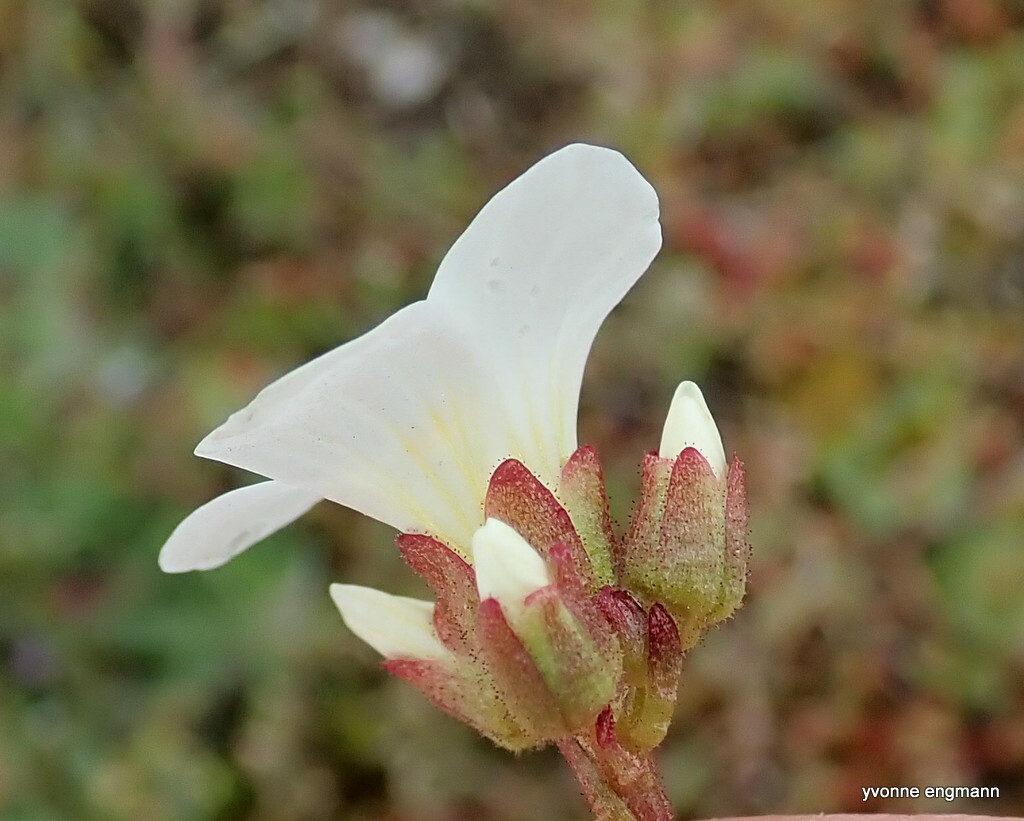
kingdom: Plantae
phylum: Tracheophyta
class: Magnoliopsida
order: Saxifragales
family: Saxifragaceae
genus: Saxifraga
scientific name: Saxifraga granulata
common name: Meadow saxifrage
